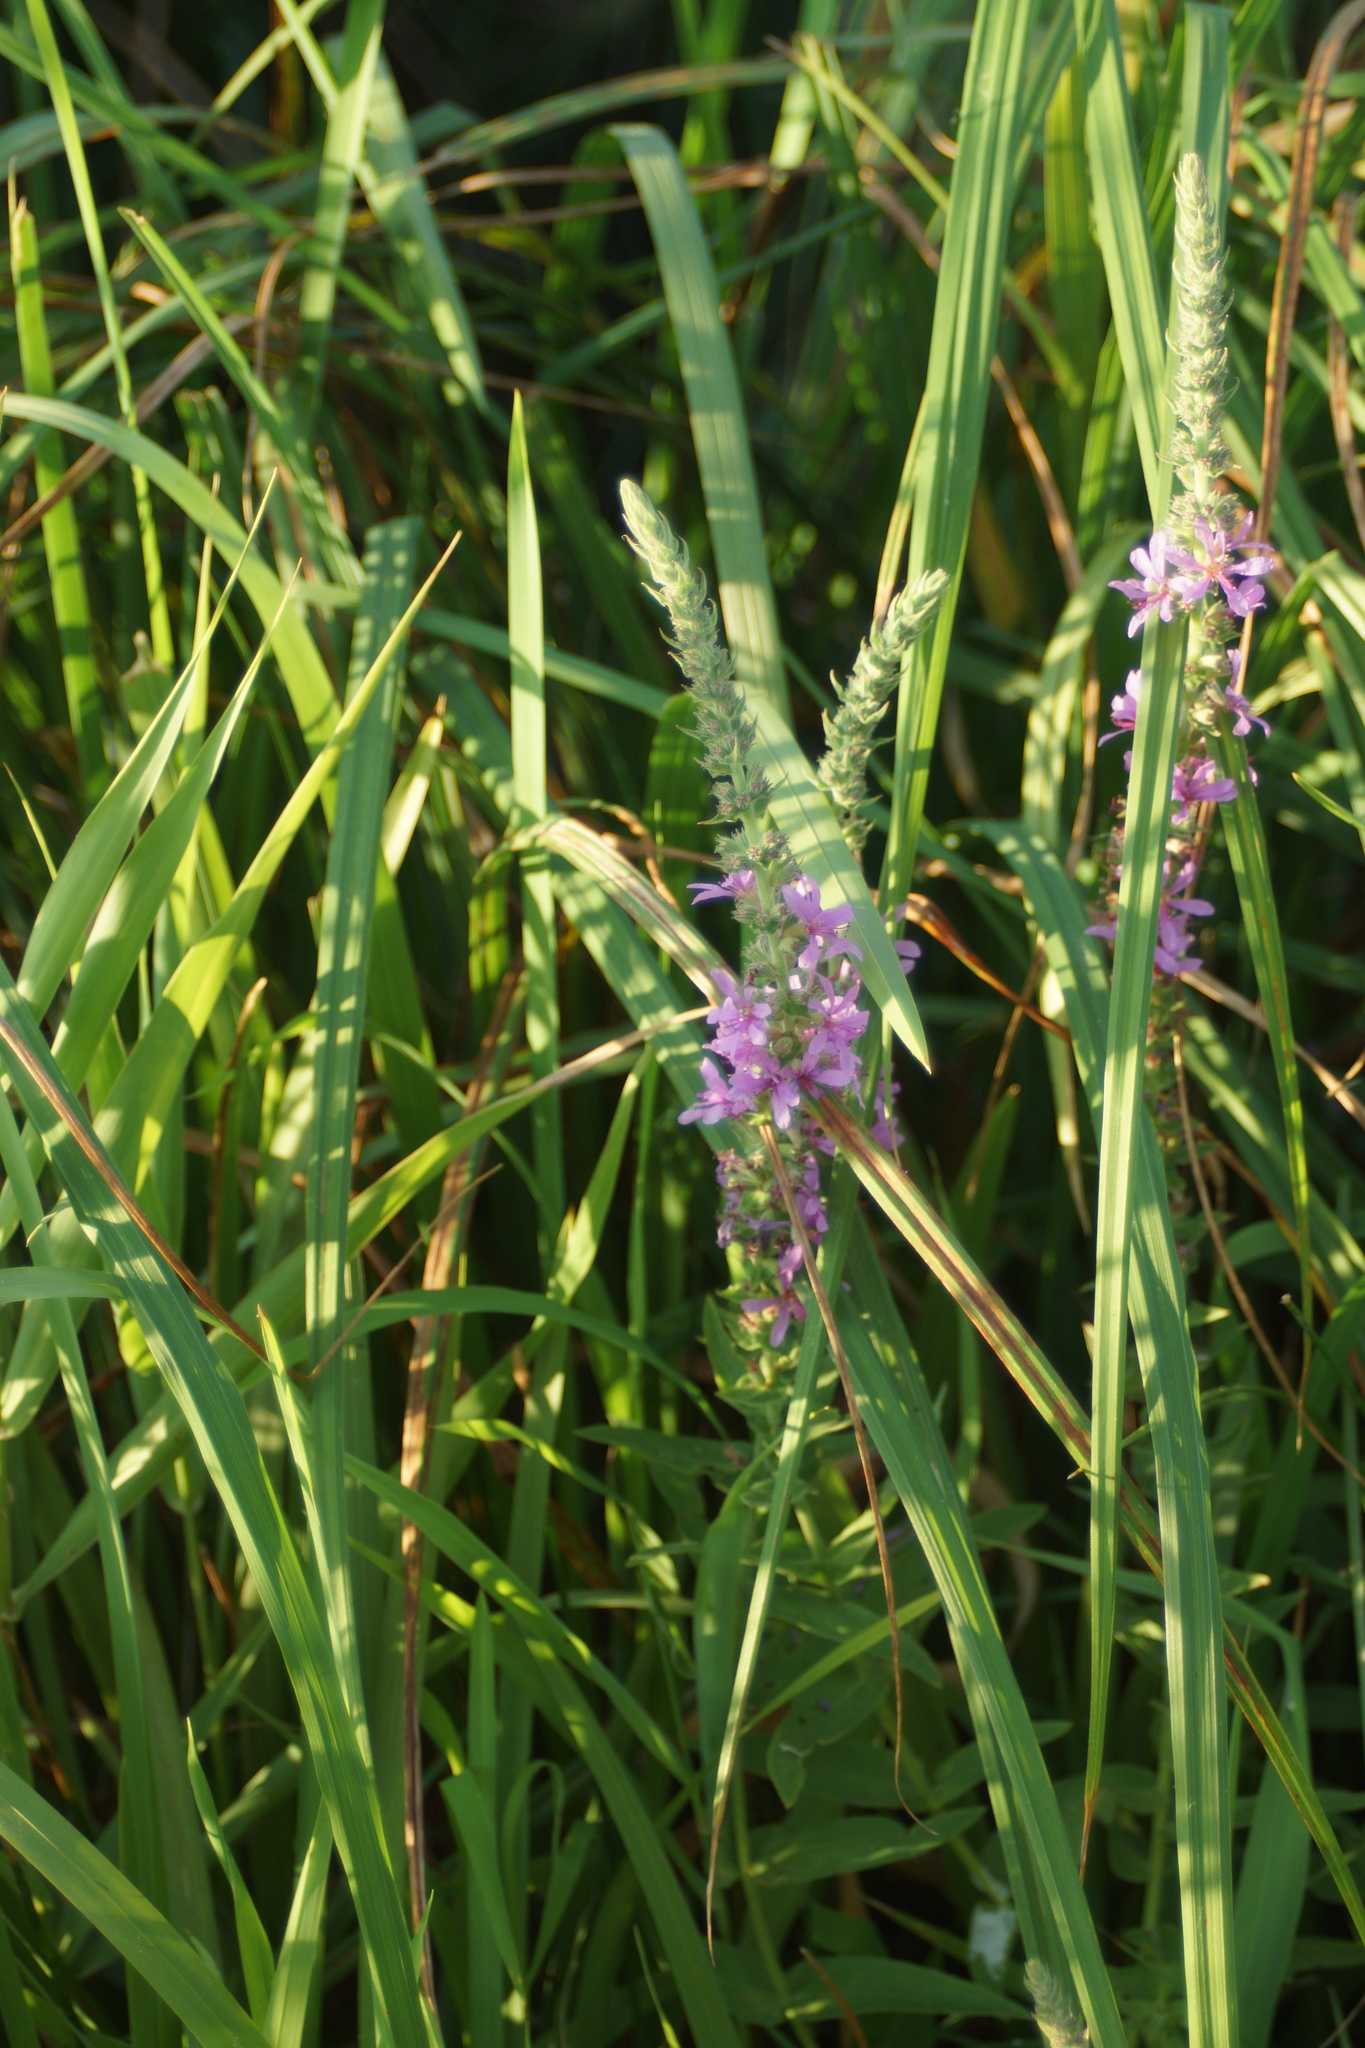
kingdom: Plantae
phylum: Tracheophyta
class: Magnoliopsida
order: Myrtales
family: Lythraceae
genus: Lythrum
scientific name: Lythrum salicaria
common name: Purple loosestrife
